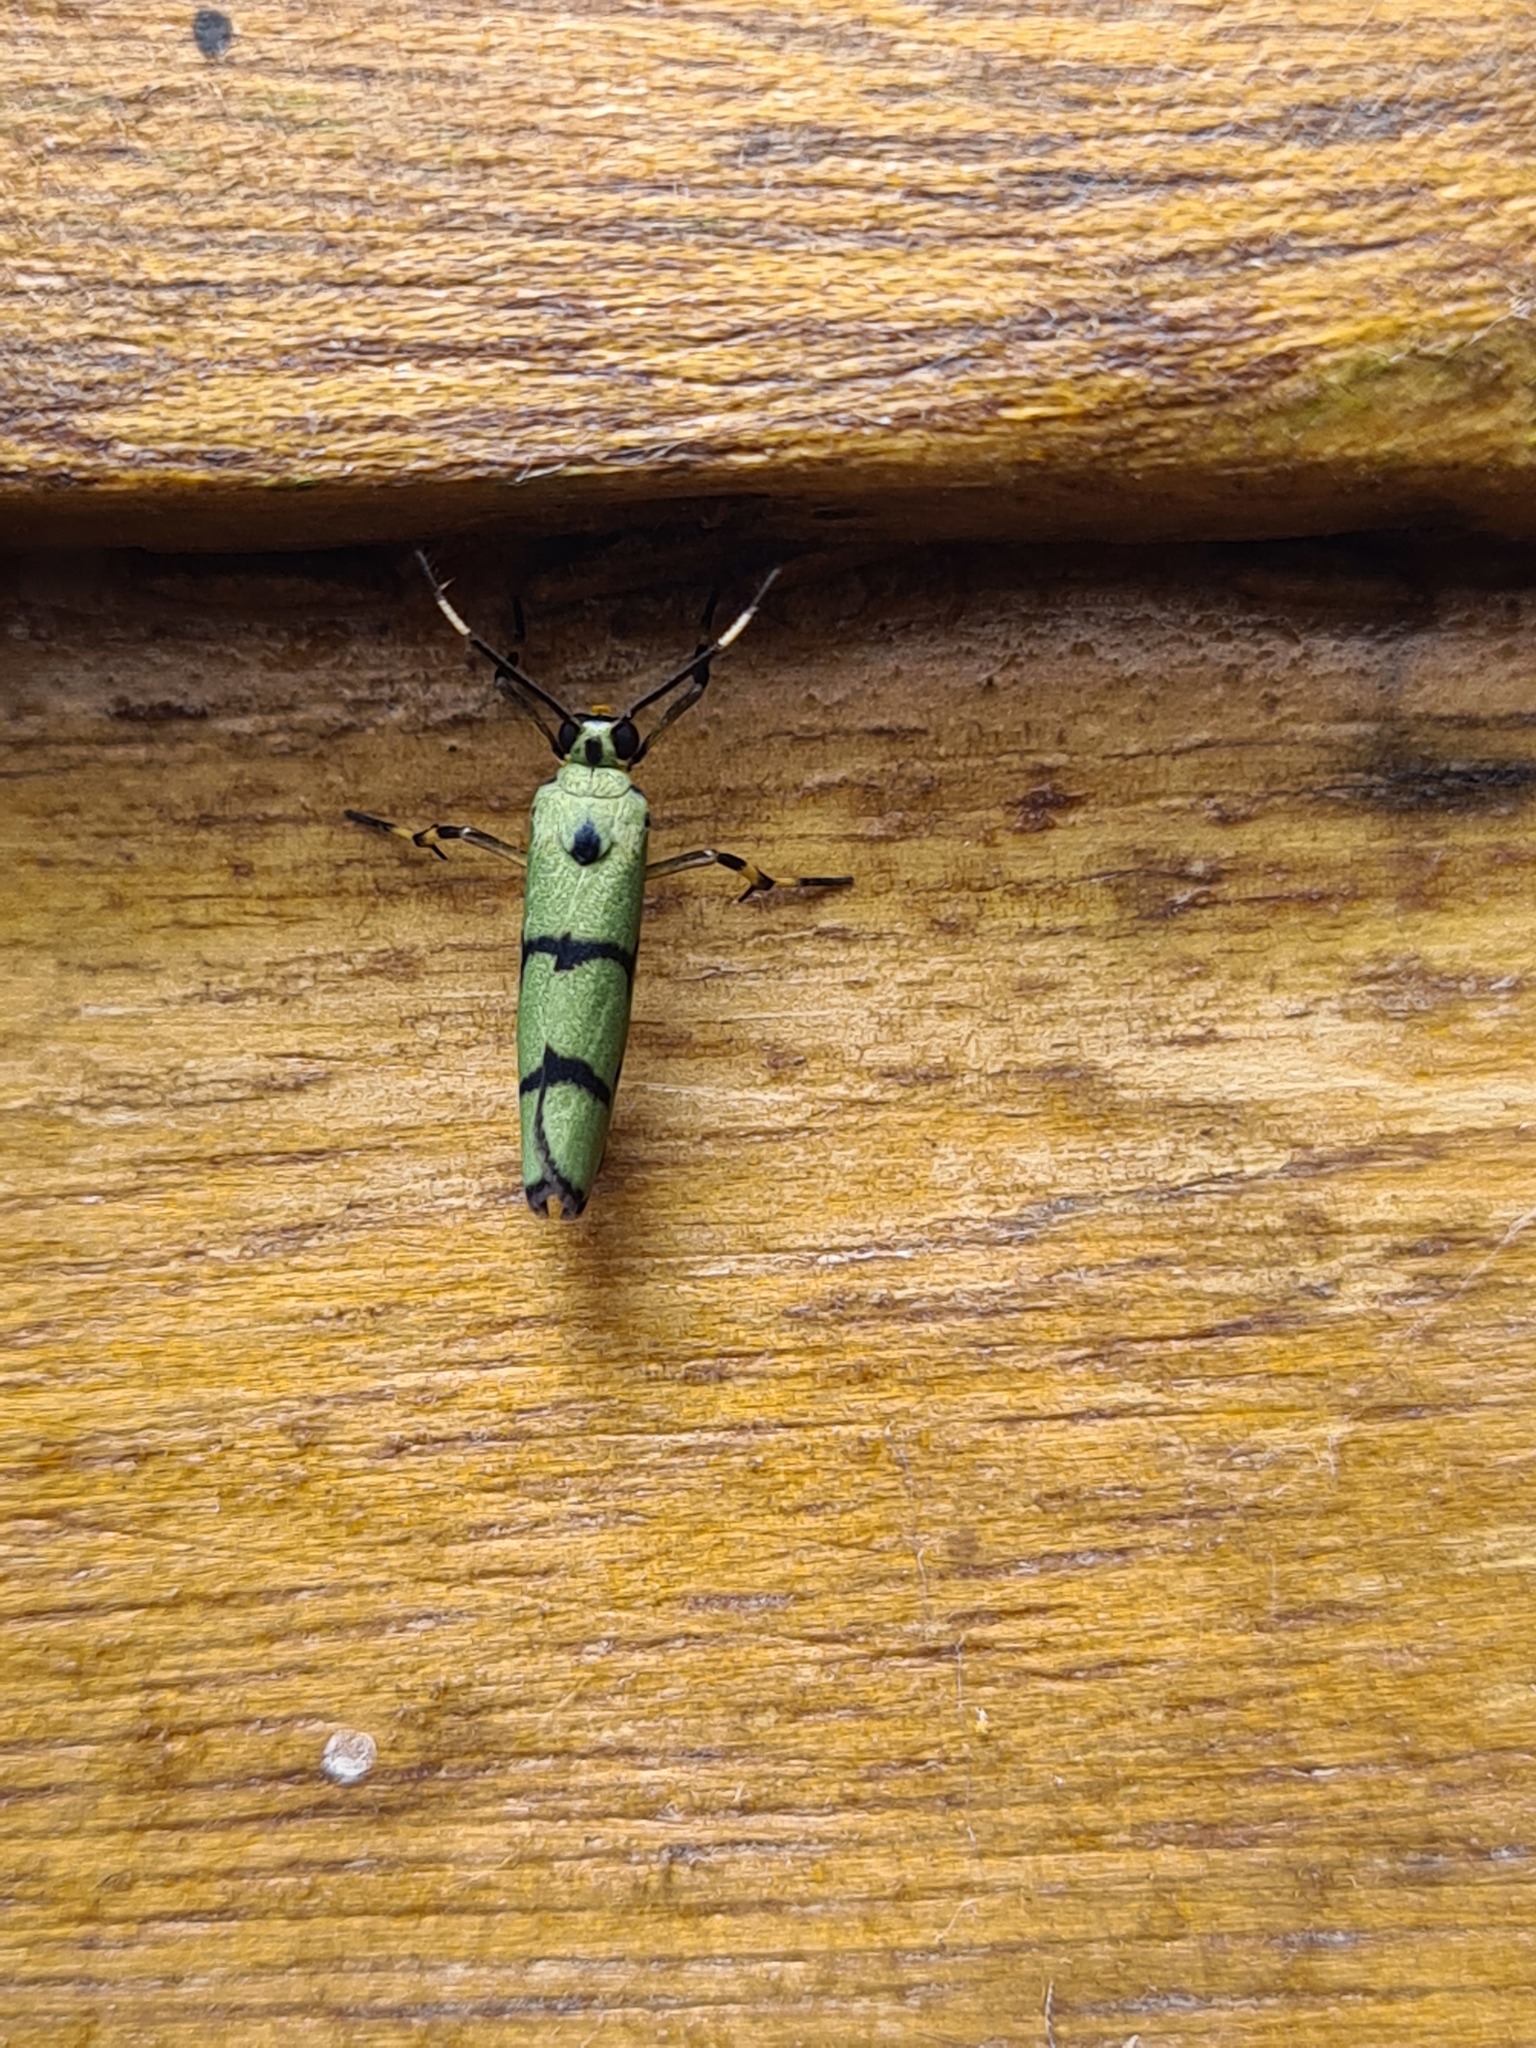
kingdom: Animalia
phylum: Arthropoda
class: Insecta
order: Lepidoptera
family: Erebidae
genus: Cisthene
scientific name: Cisthene citrina
